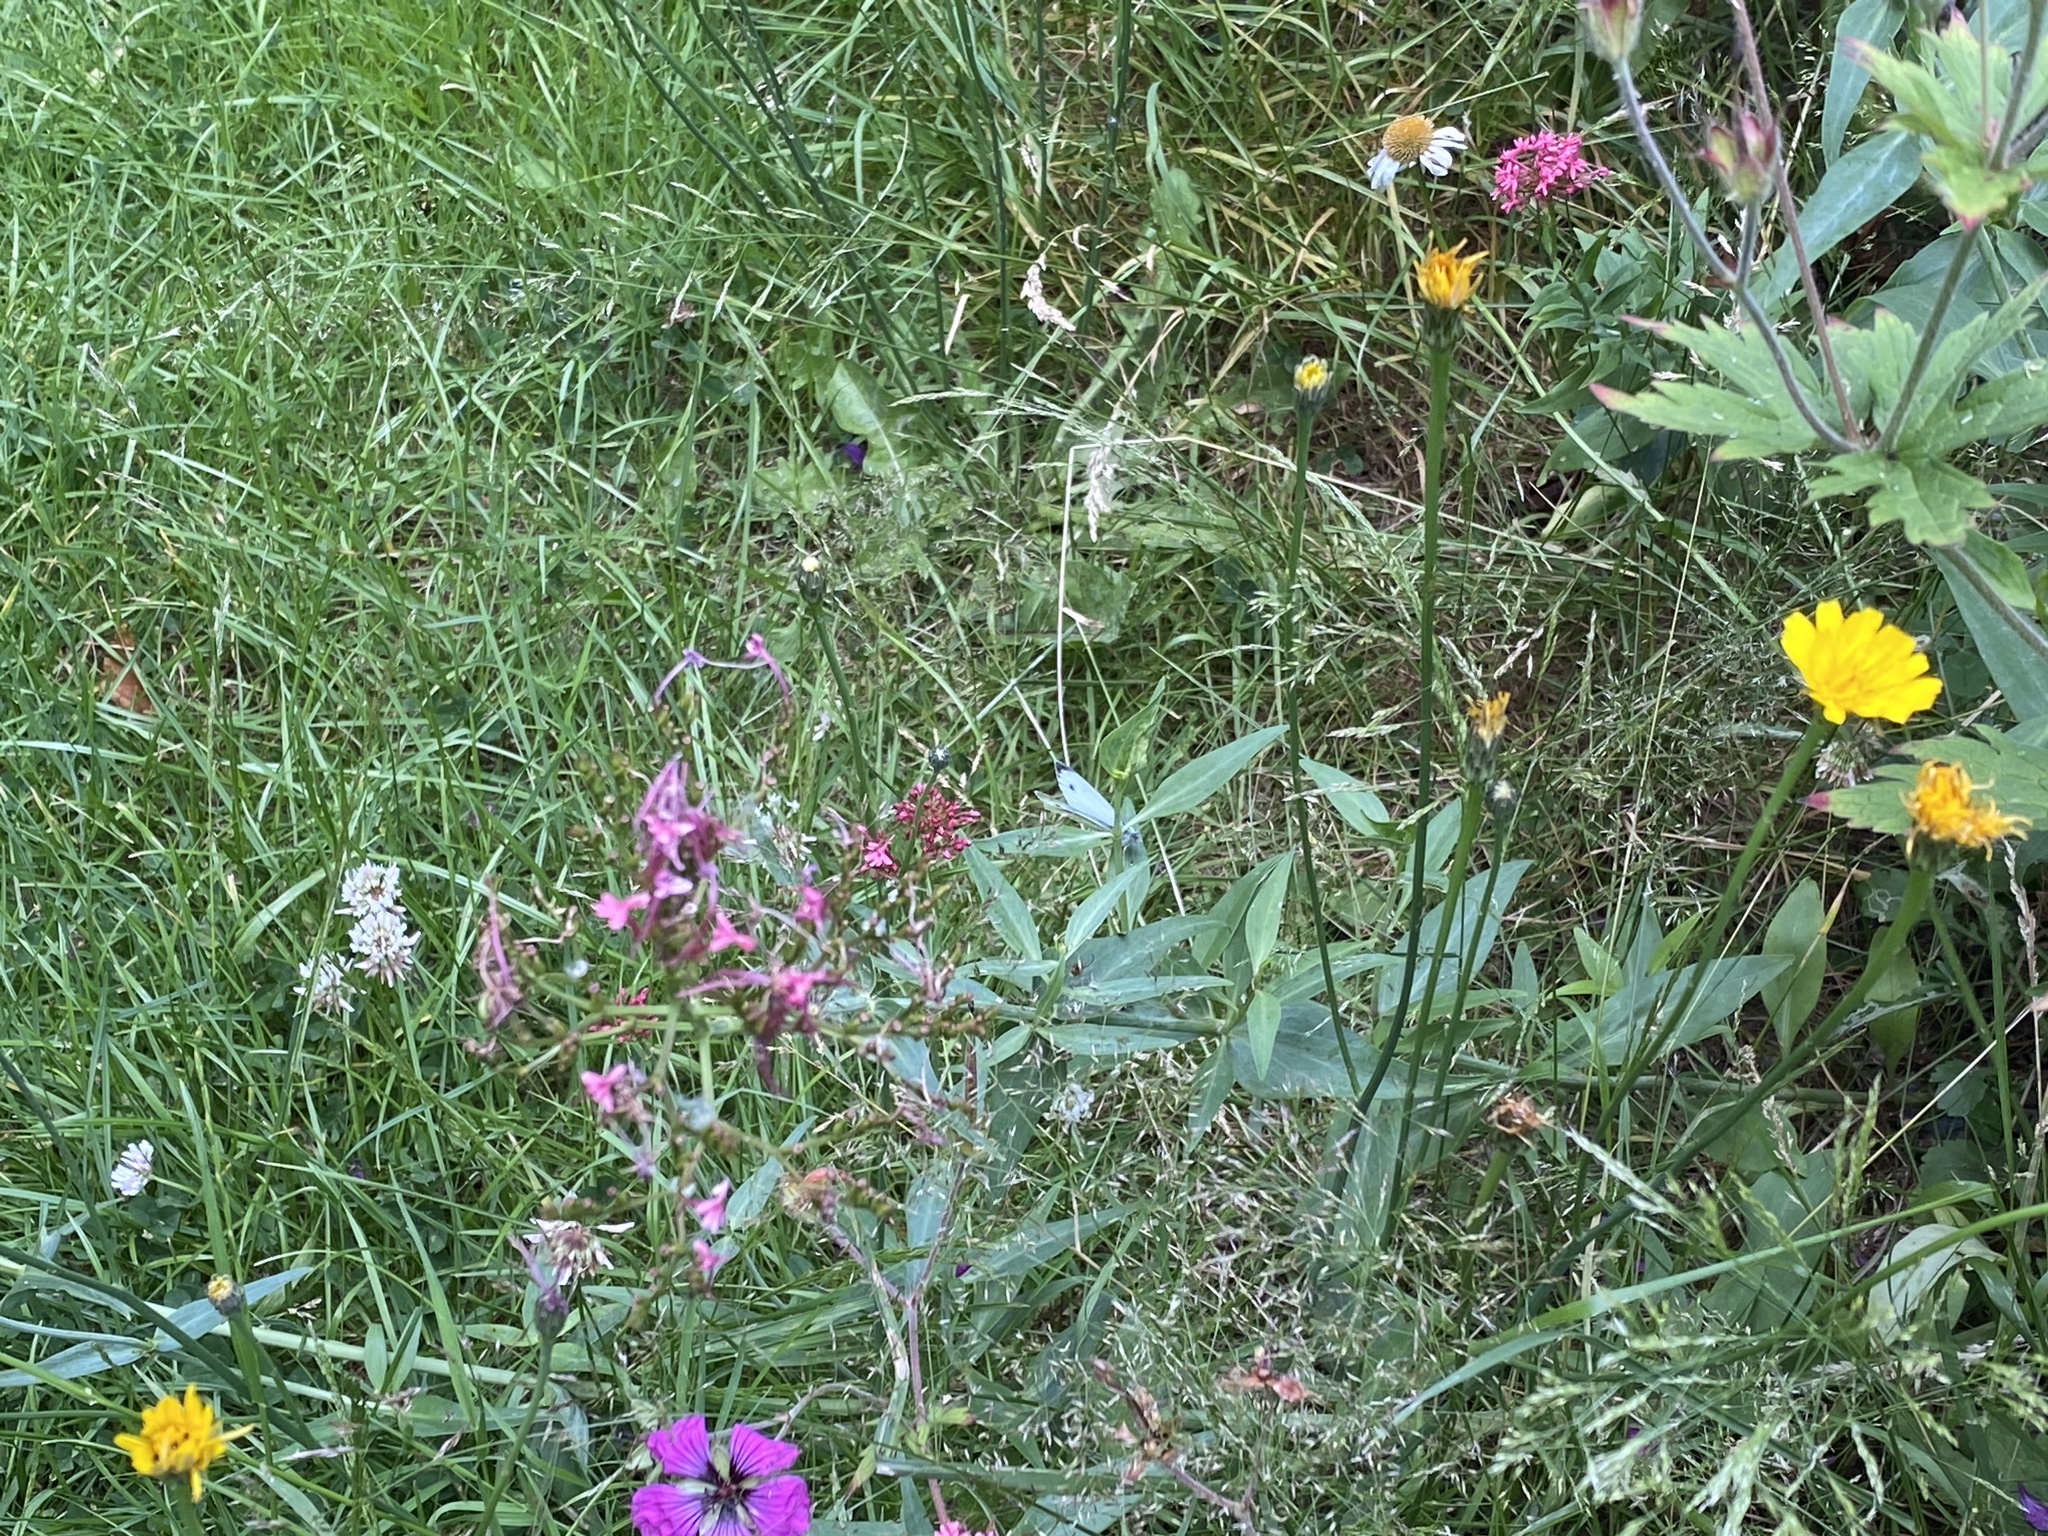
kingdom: Animalia
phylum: Arthropoda
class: Insecta
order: Lepidoptera
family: Pieridae
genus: Pieris
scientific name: Pieris napi
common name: Green-veined white
